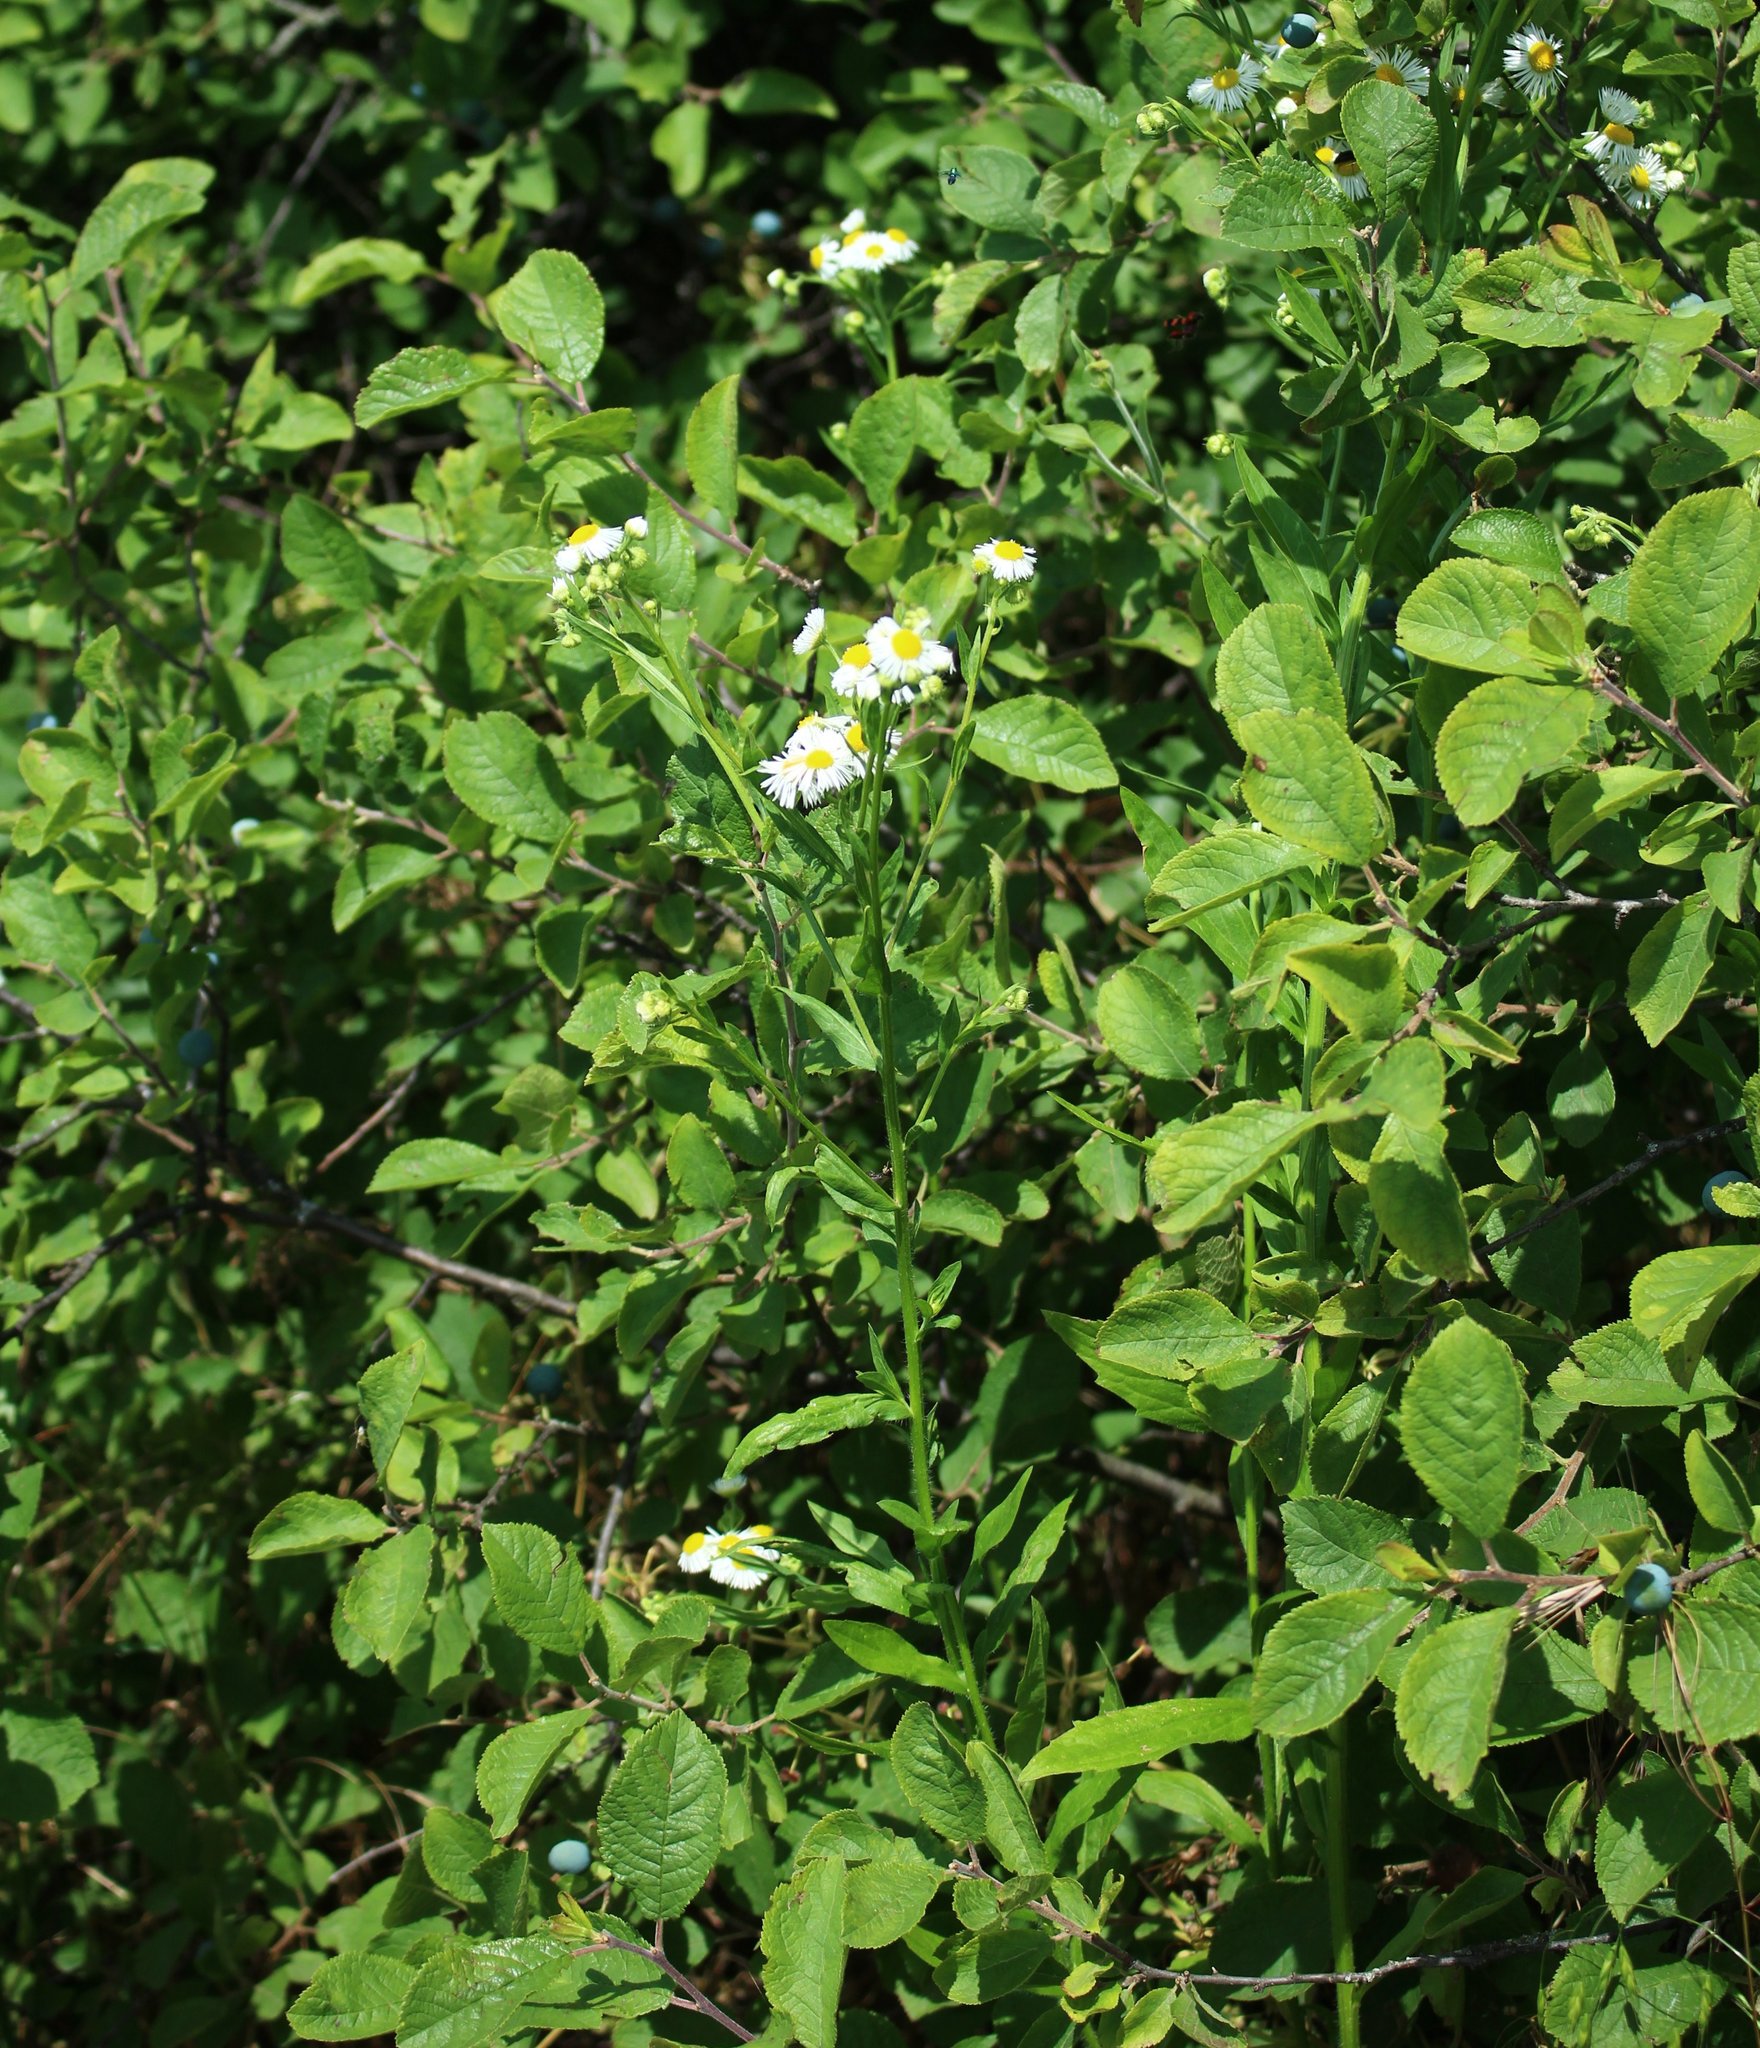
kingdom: Plantae
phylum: Tracheophyta
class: Magnoliopsida
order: Asterales
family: Asteraceae
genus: Erigeron
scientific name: Erigeron annuus
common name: Tall fleabane
